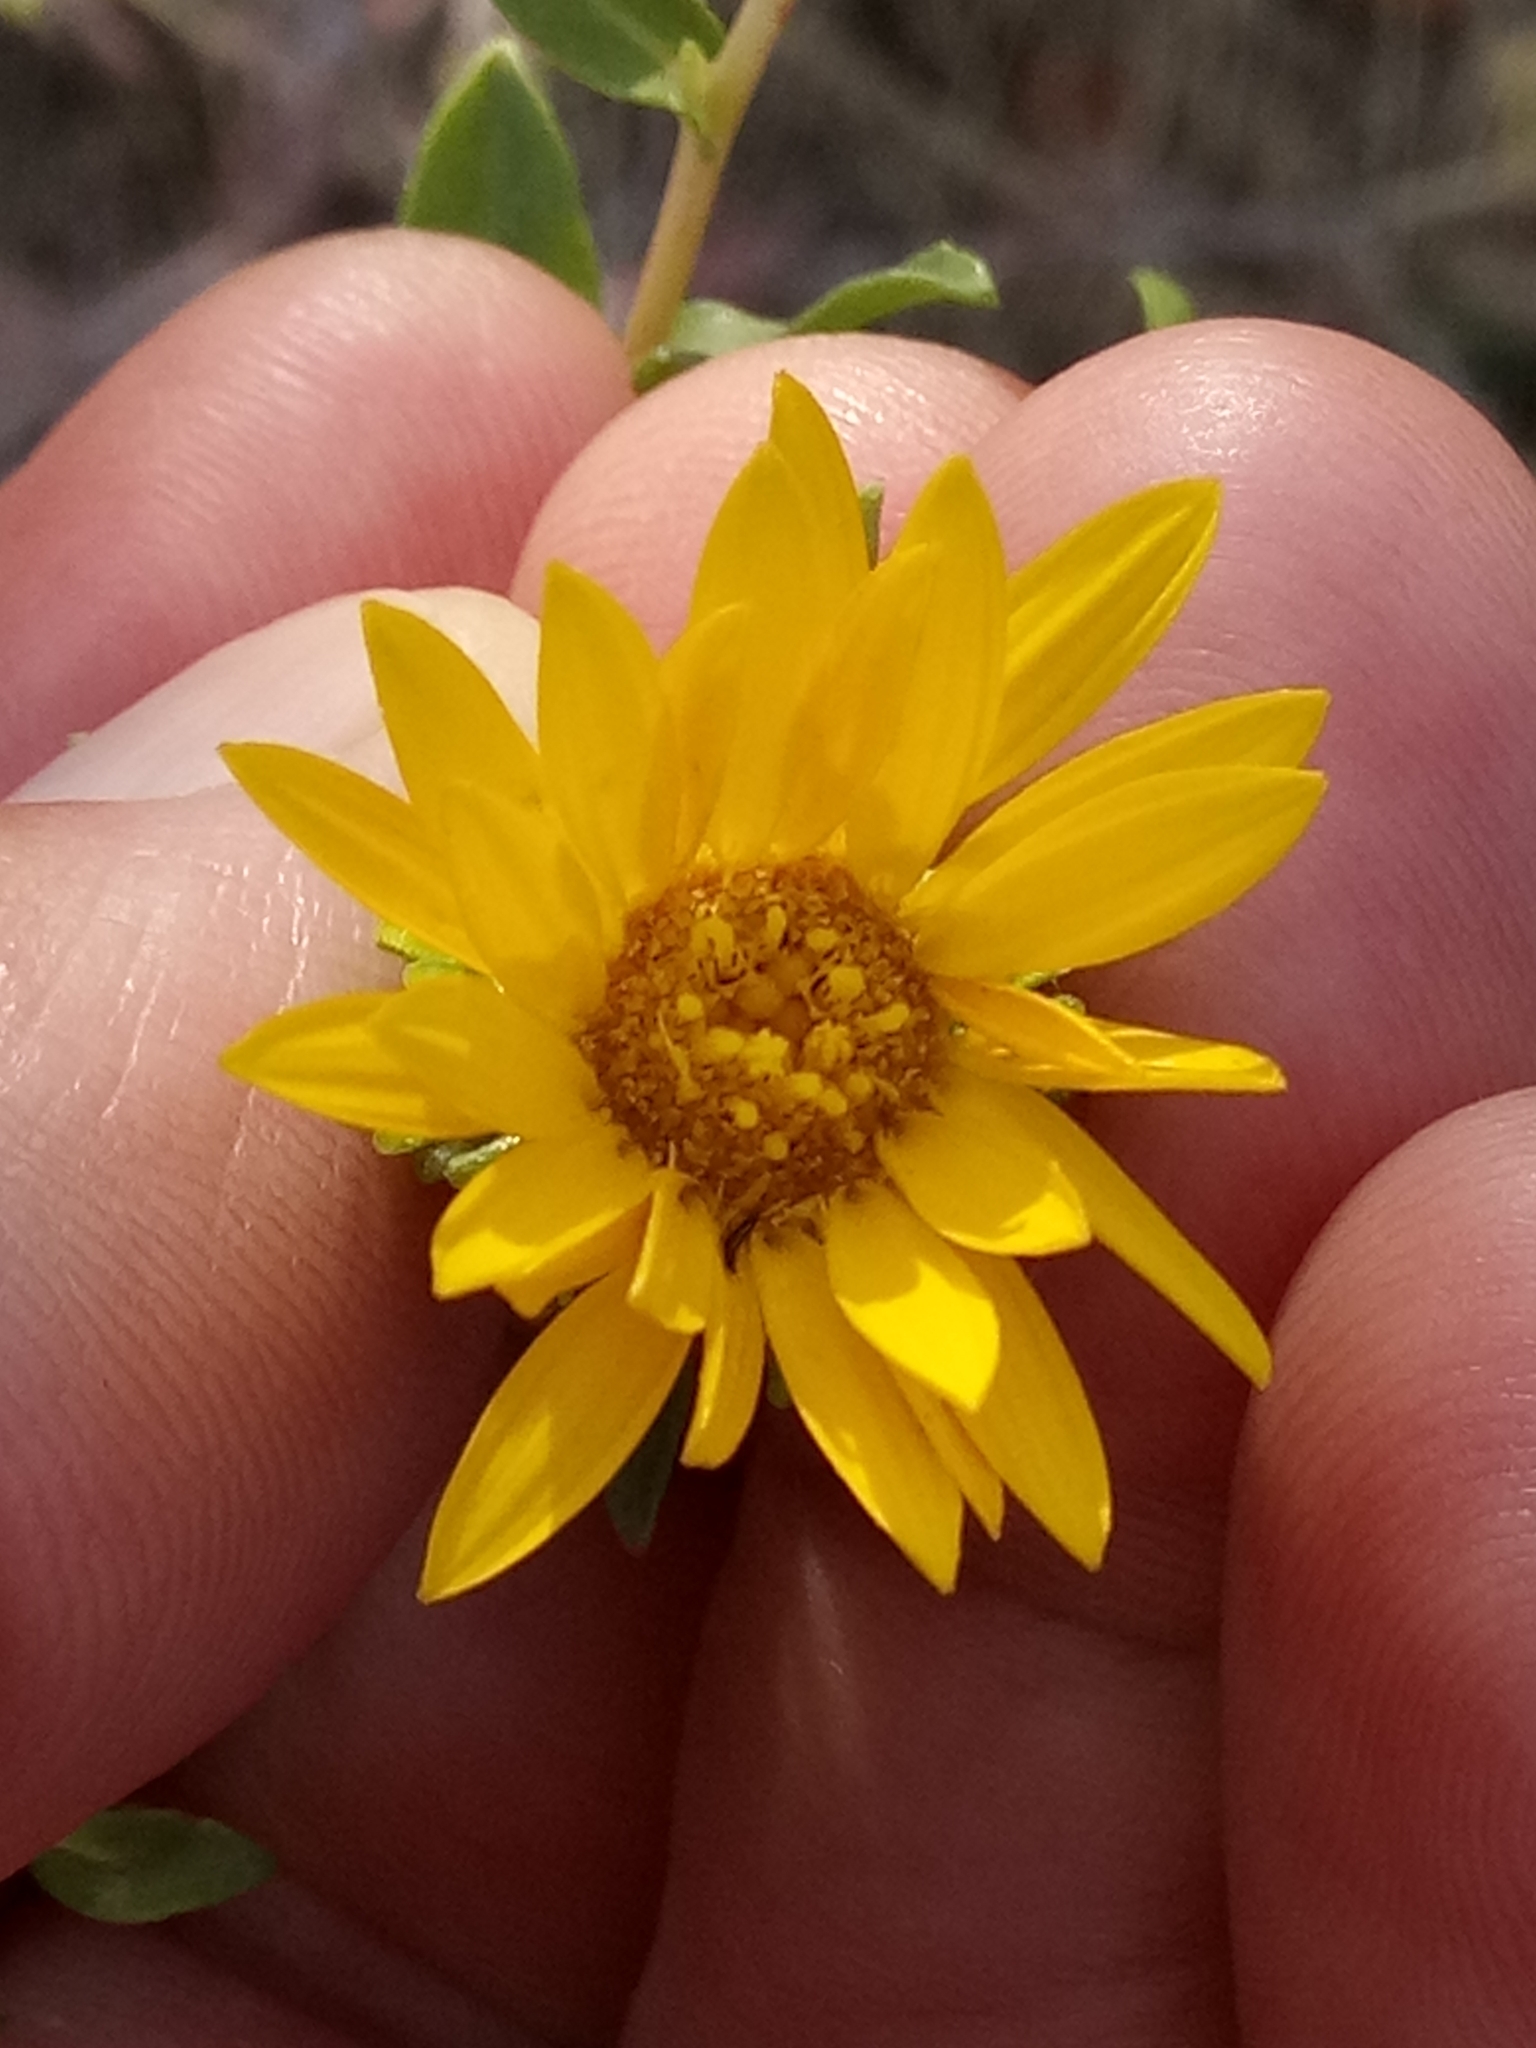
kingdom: Plantae
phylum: Tracheophyta
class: Magnoliopsida
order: Asterales
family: Asteraceae
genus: Grindelia
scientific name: Grindelia squarrosa
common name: Curly-cup gumweed
